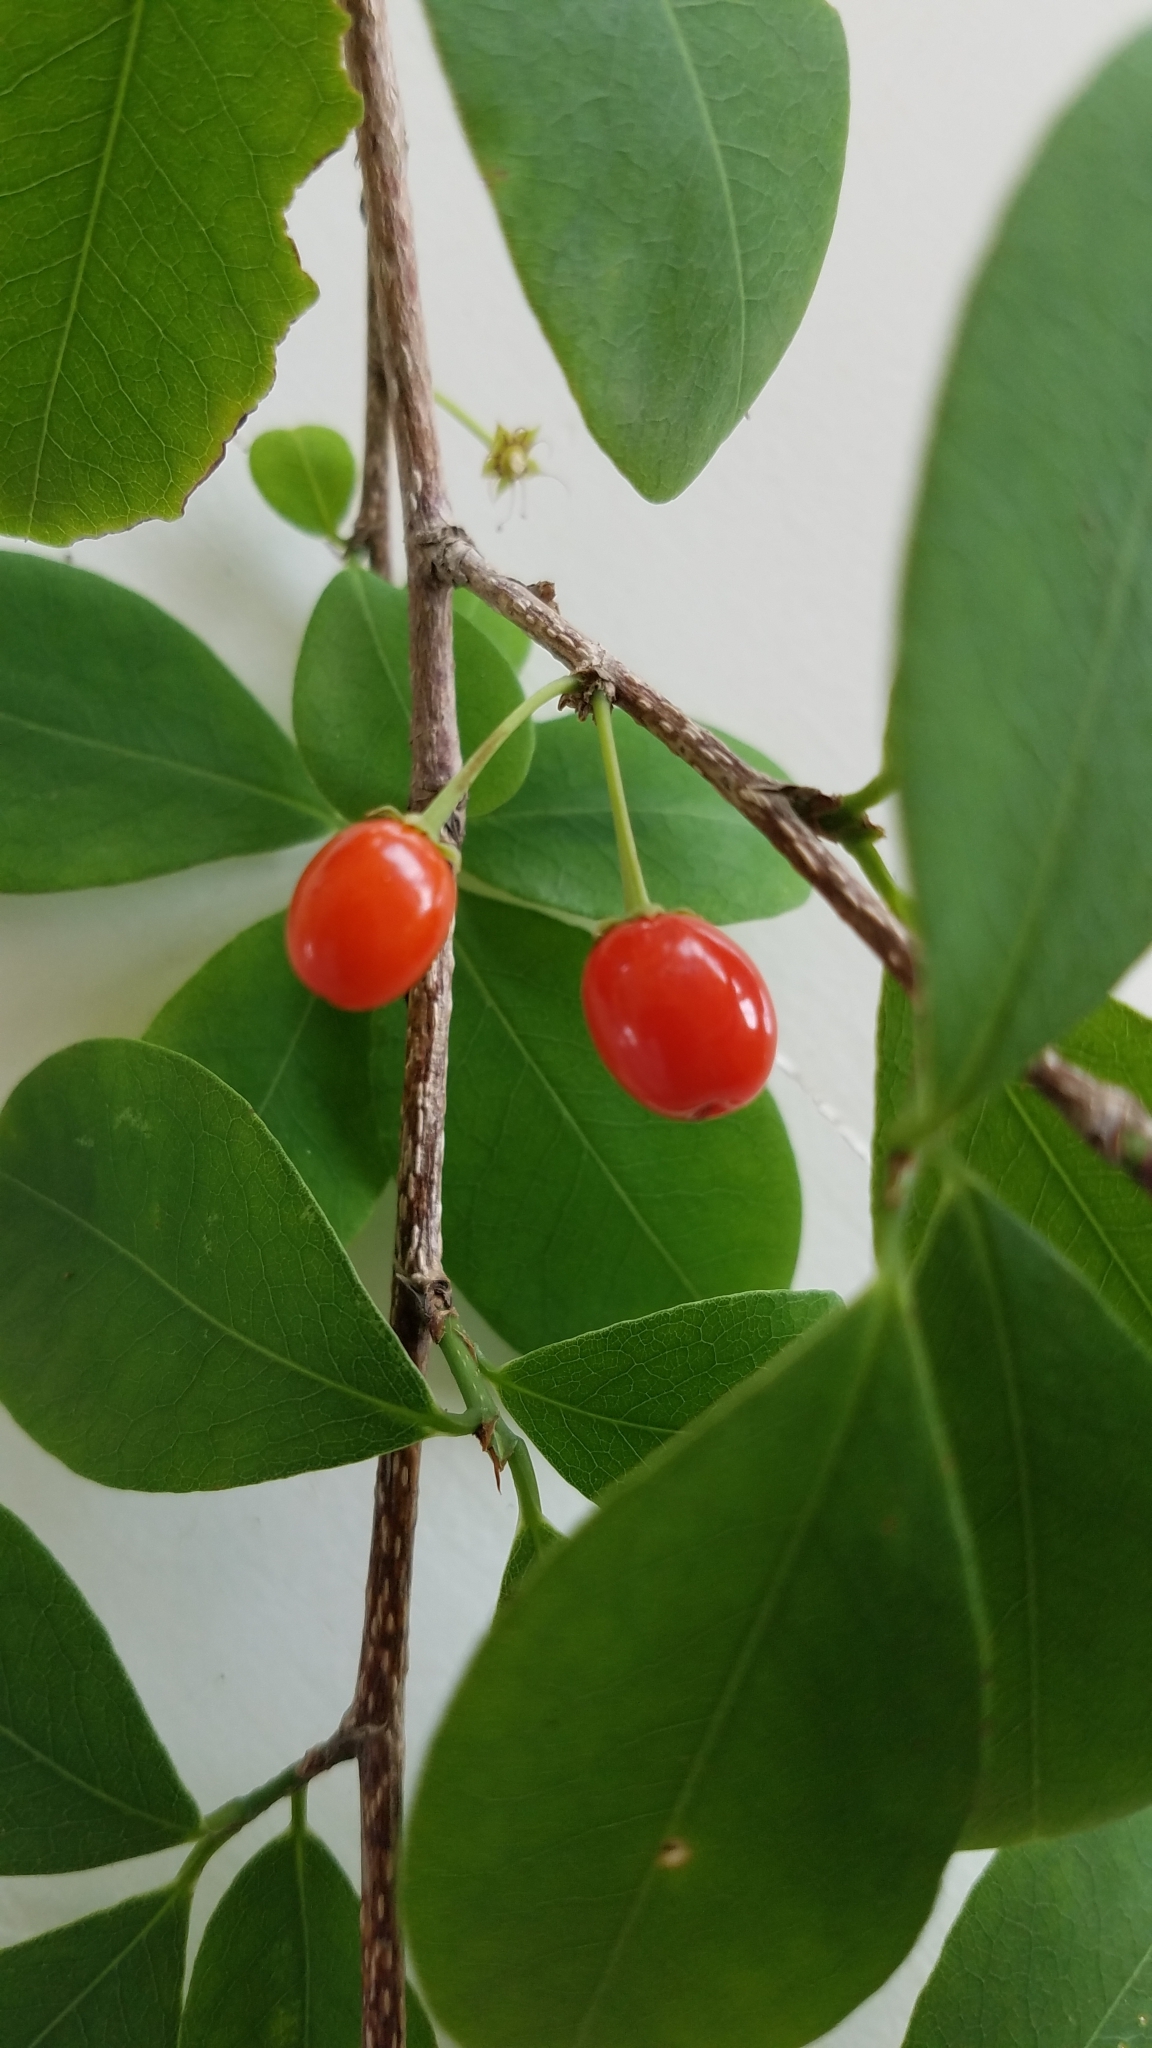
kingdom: Plantae
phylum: Tracheophyta
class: Magnoliopsida
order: Malpighiales
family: Erythroxylaceae
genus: Erythroxylum
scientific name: Erythroxylum havanense
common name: Bracelet
